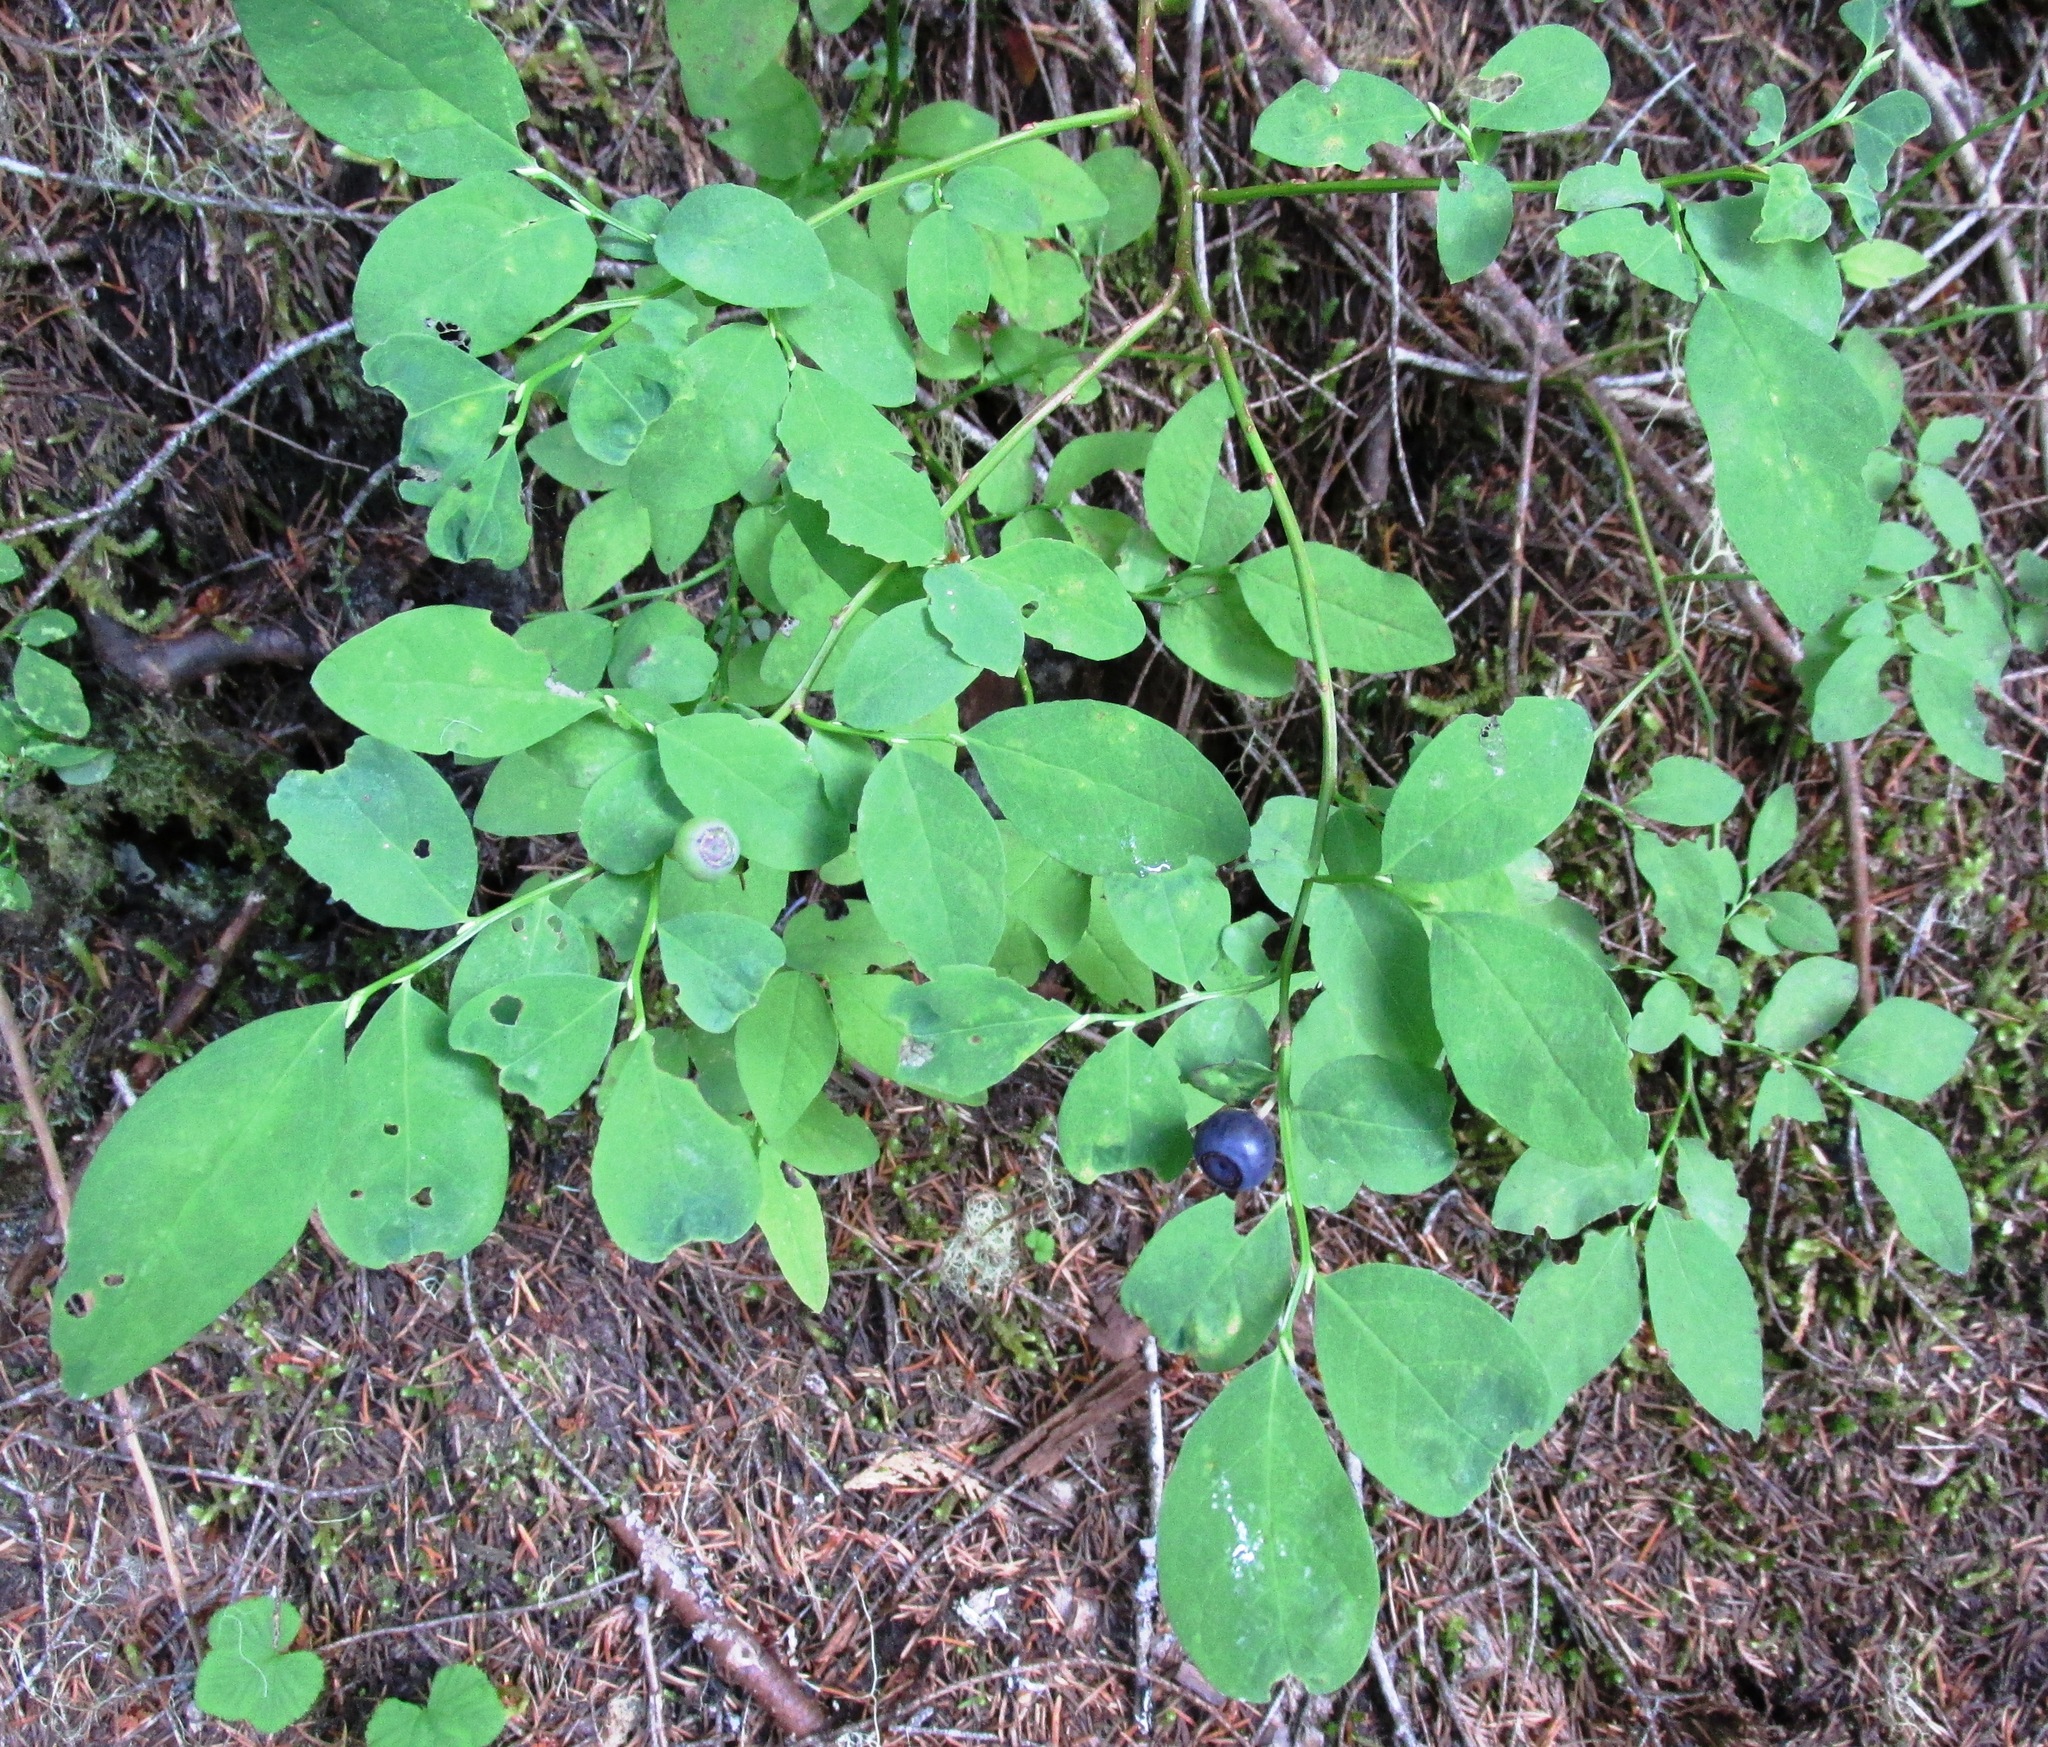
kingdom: Plantae
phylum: Tracheophyta
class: Magnoliopsida
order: Ericales
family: Ericaceae
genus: Vaccinium
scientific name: Vaccinium deliciosum
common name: Cascade bilberry
